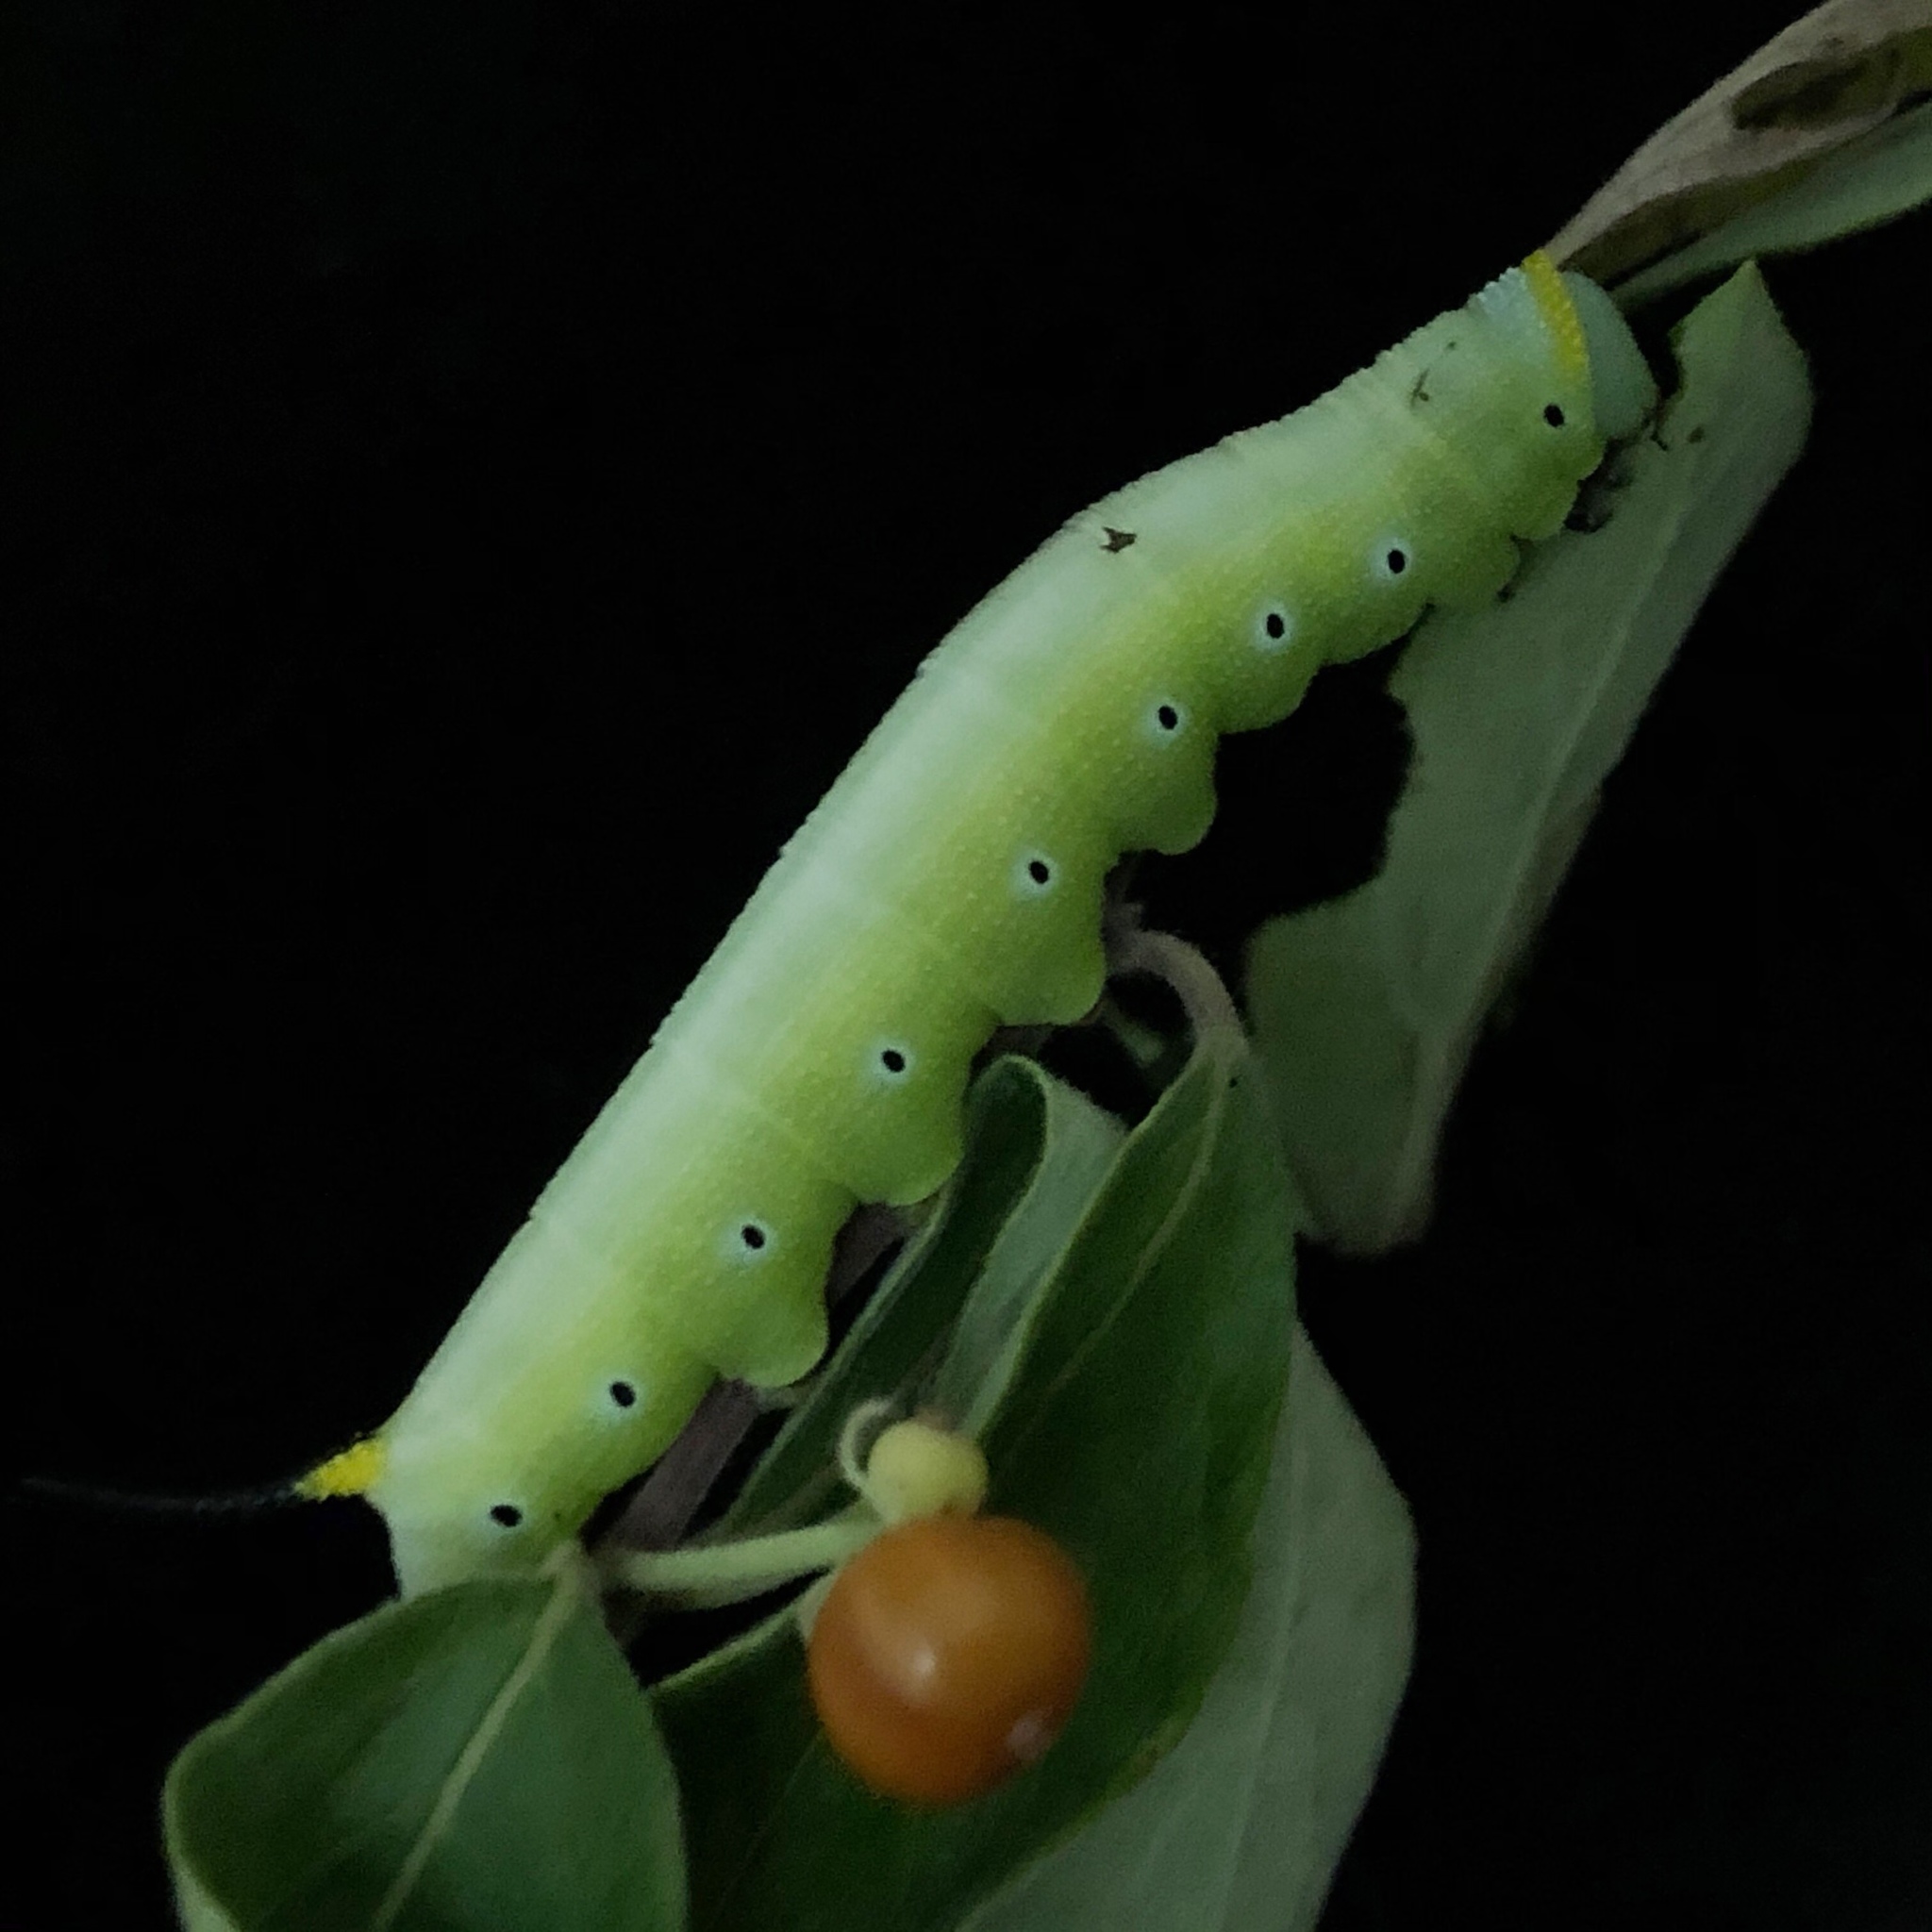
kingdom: Animalia
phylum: Arthropoda
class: Insecta
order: Lepidoptera
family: Sphingidae
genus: Hemaris
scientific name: Hemaris diffinis
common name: Bumblebee moth
